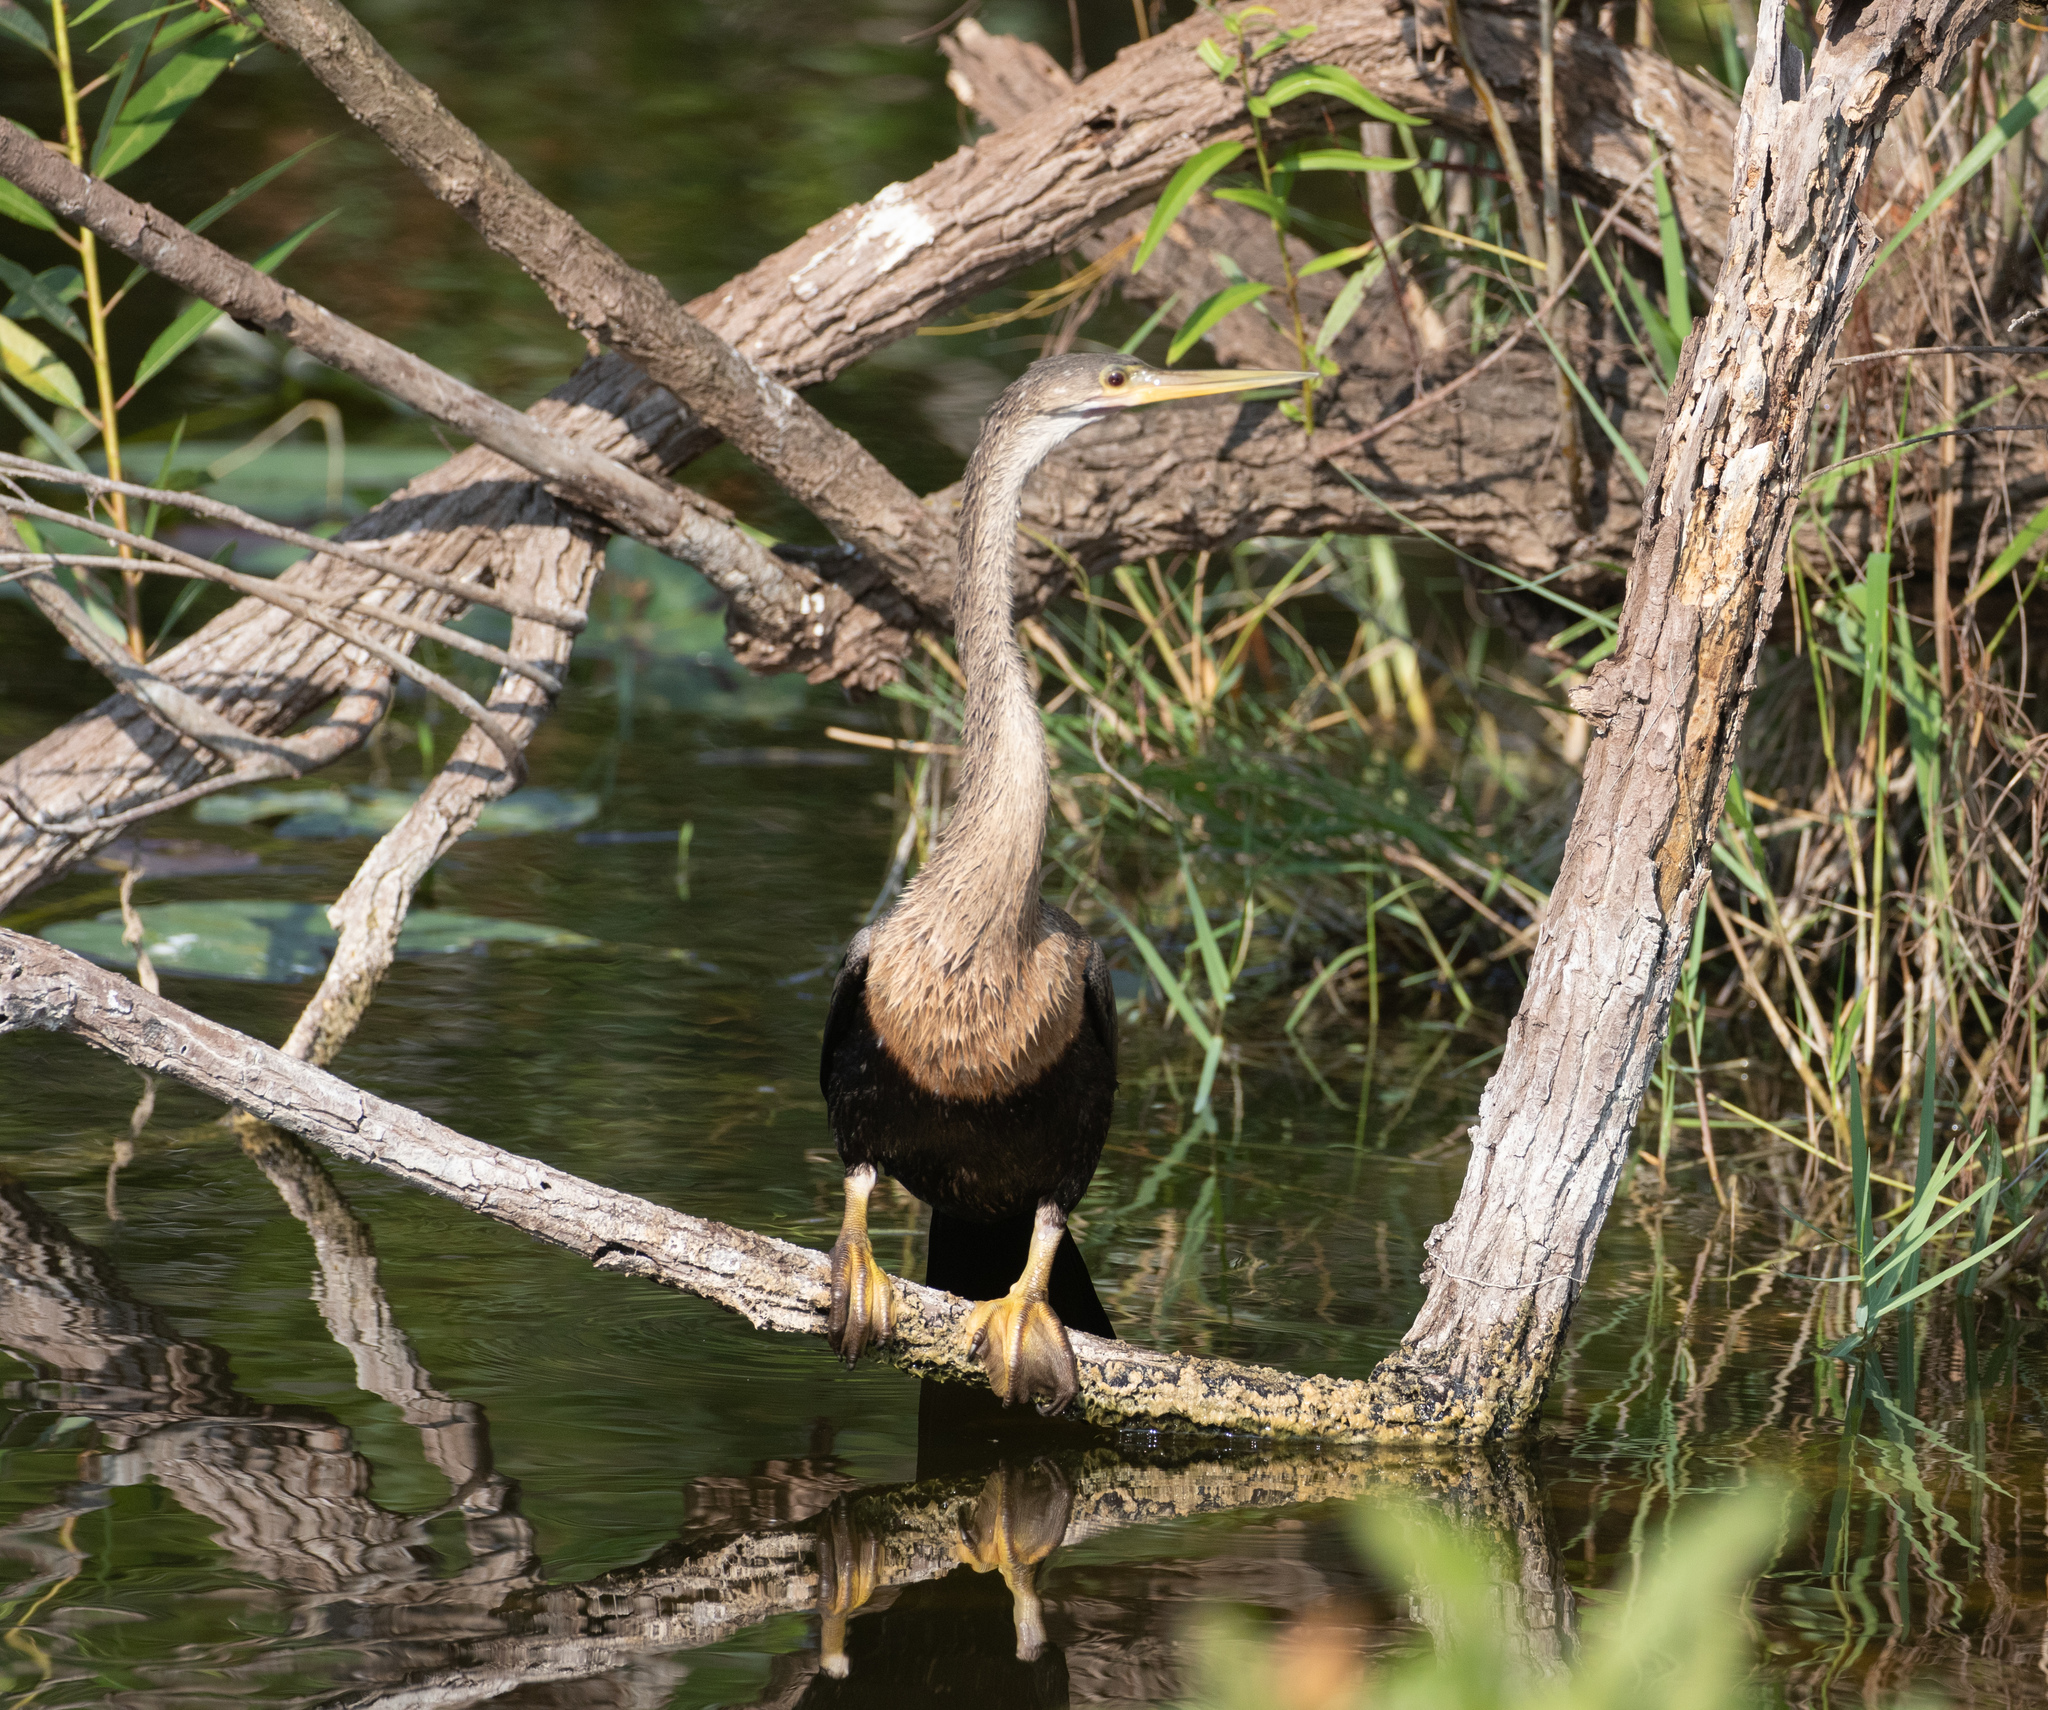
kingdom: Animalia
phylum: Chordata
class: Aves
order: Suliformes
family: Anhingidae
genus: Anhinga
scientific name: Anhinga anhinga
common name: Anhinga
